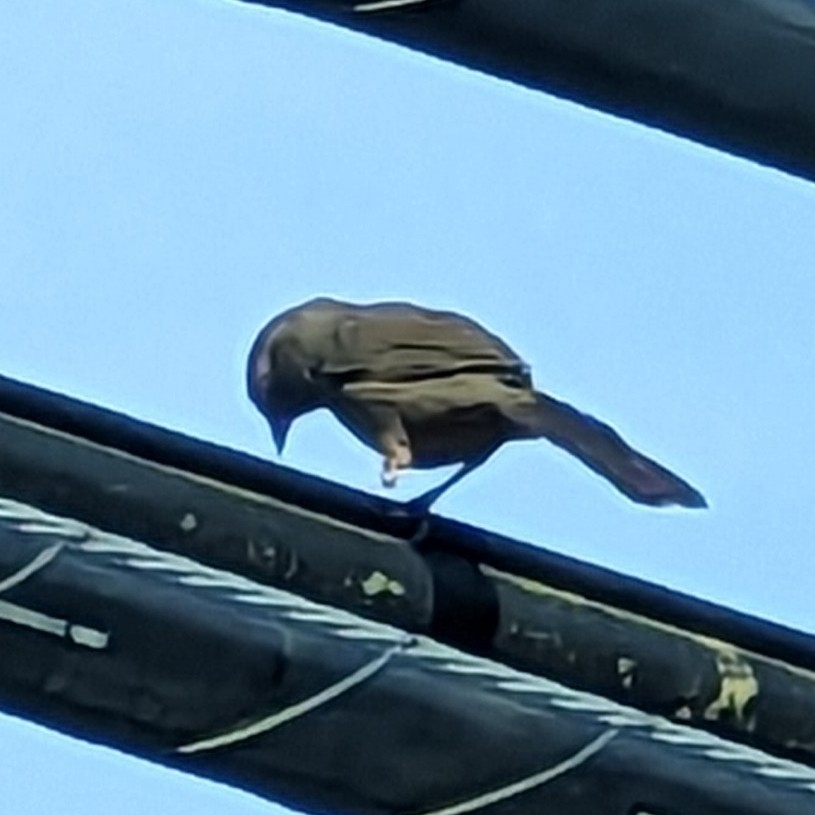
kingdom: Animalia
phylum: Chordata
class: Aves
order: Passeriformes
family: Passerellidae
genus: Melozone
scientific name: Melozone crissalis
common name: California towhee
